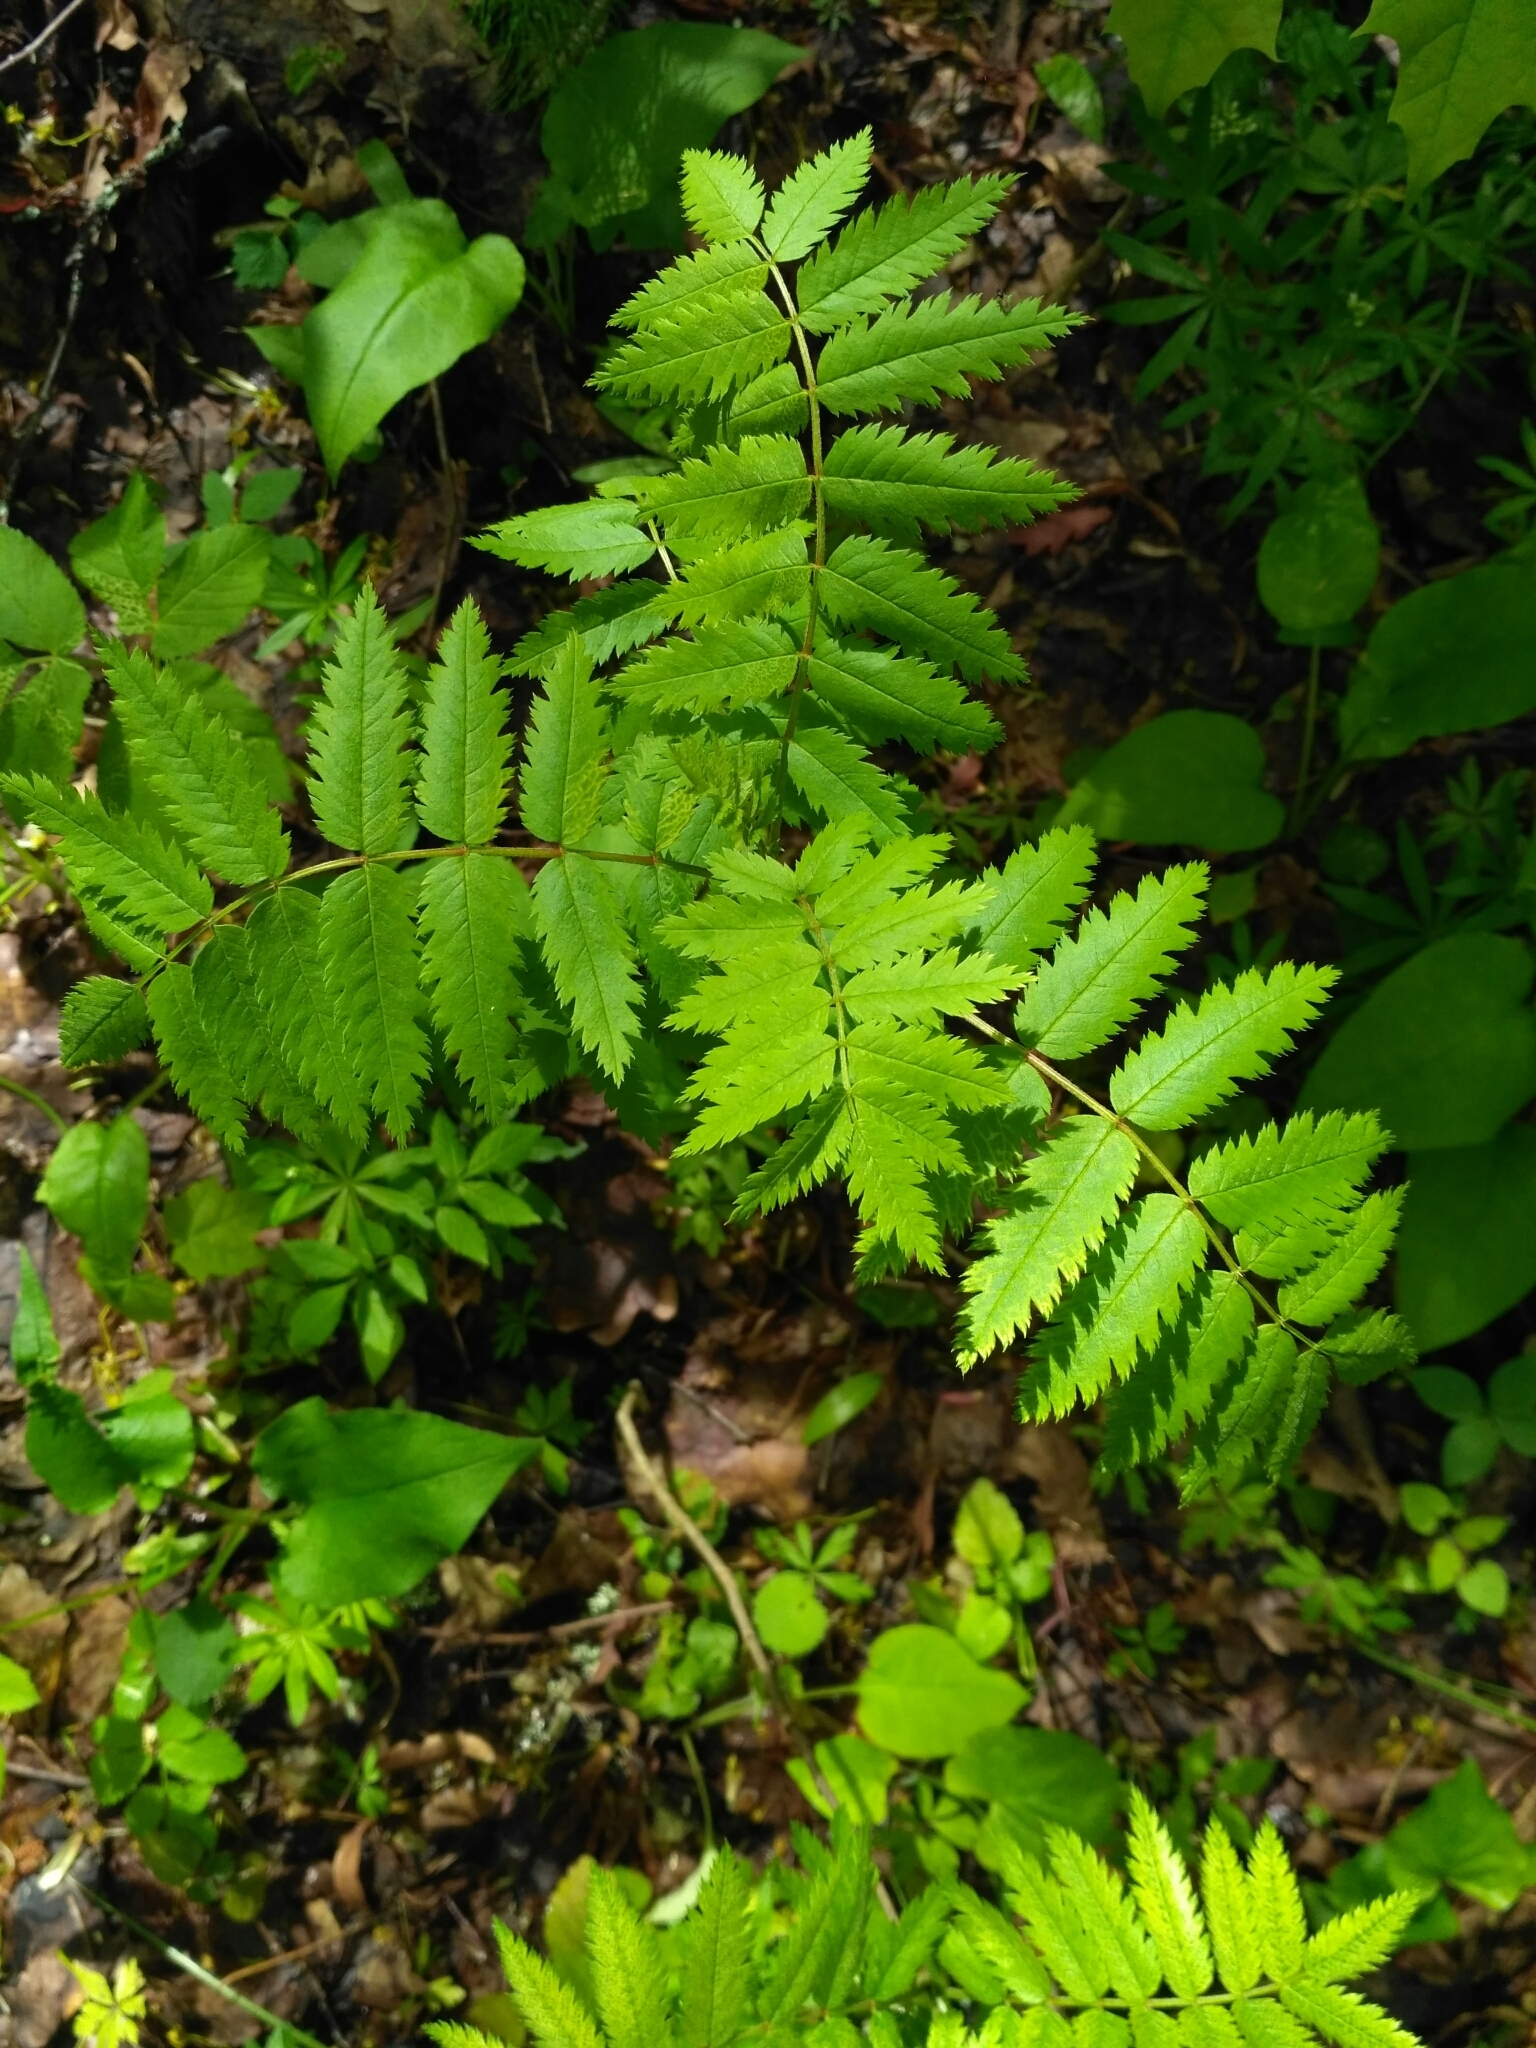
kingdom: Plantae
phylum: Tracheophyta
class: Magnoliopsida
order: Rosales
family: Rosaceae
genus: Sorbus
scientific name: Sorbus aucuparia
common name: Rowan
